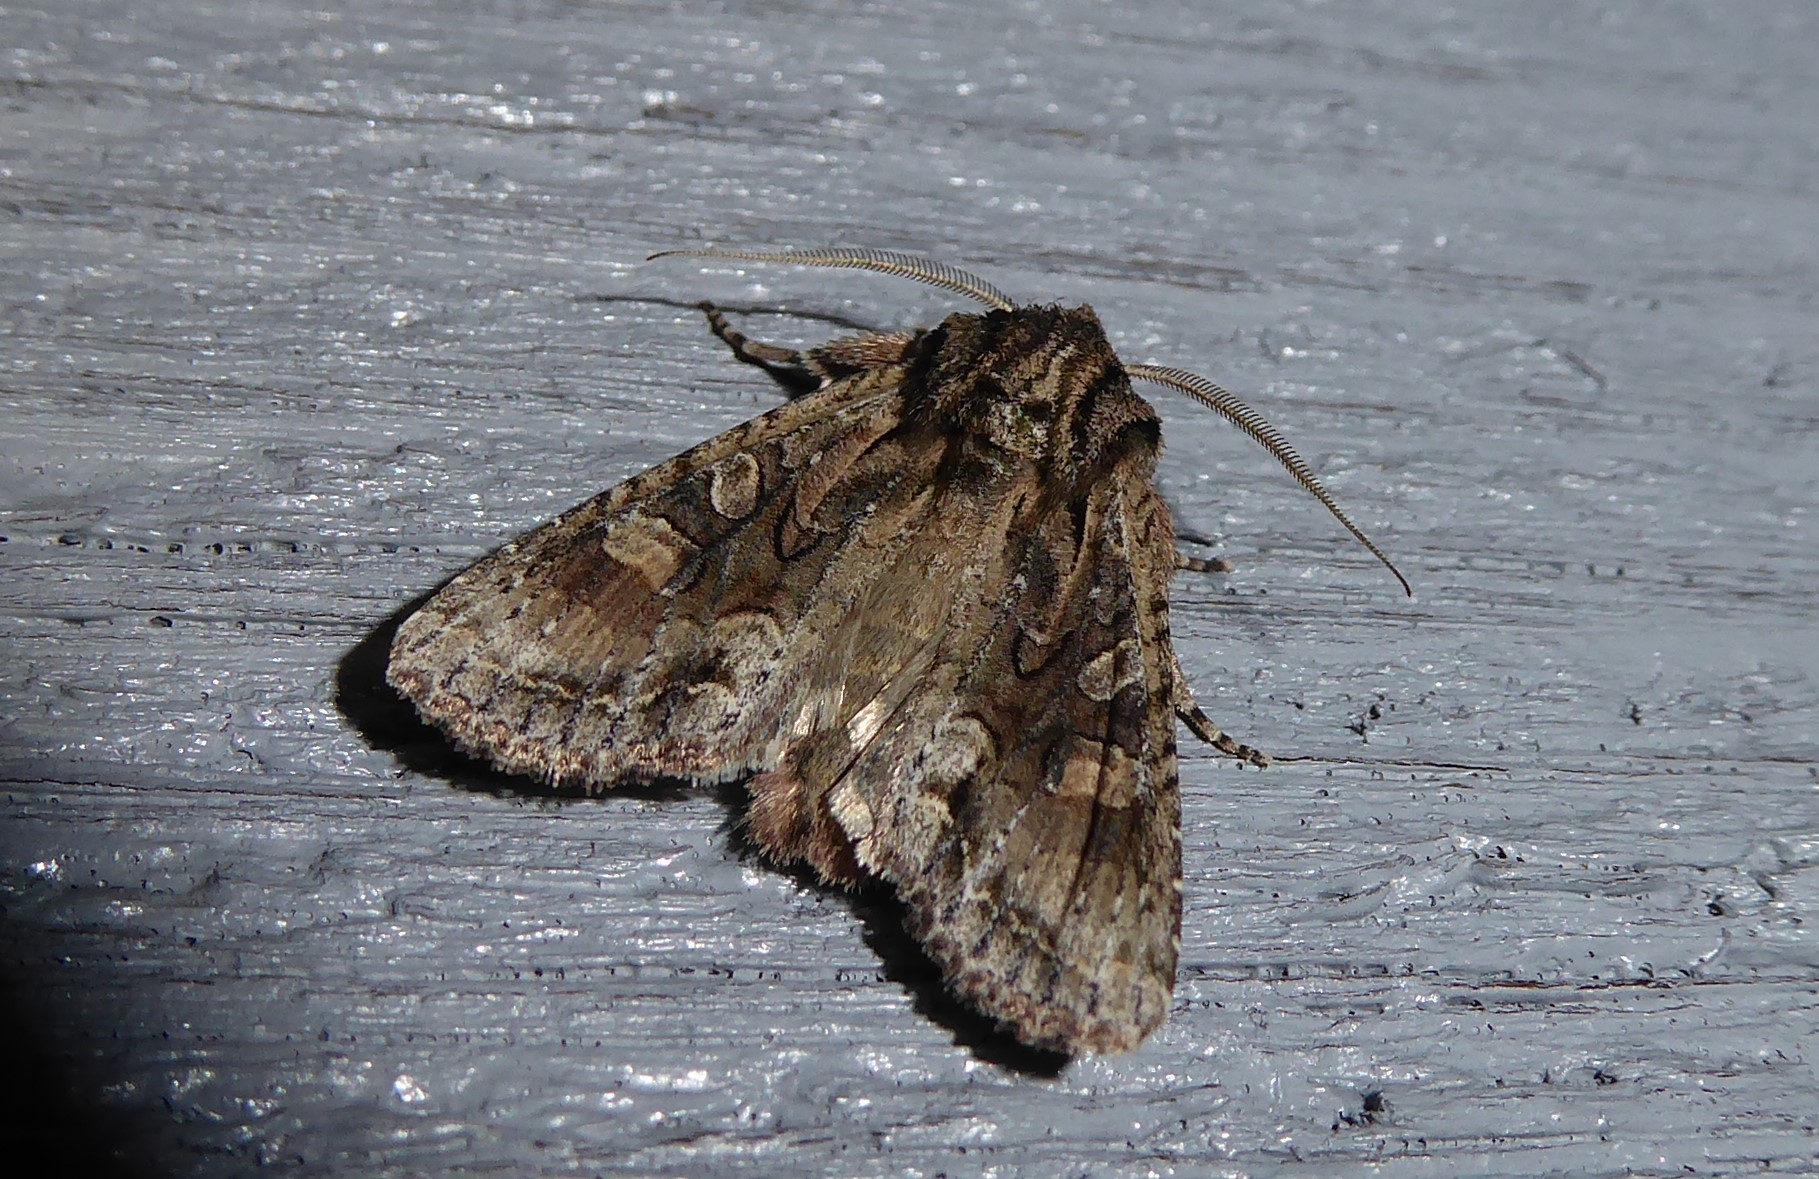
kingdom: Animalia
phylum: Arthropoda
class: Insecta
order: Lepidoptera
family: Noctuidae
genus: Ichneutica
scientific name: Ichneutica mutans
